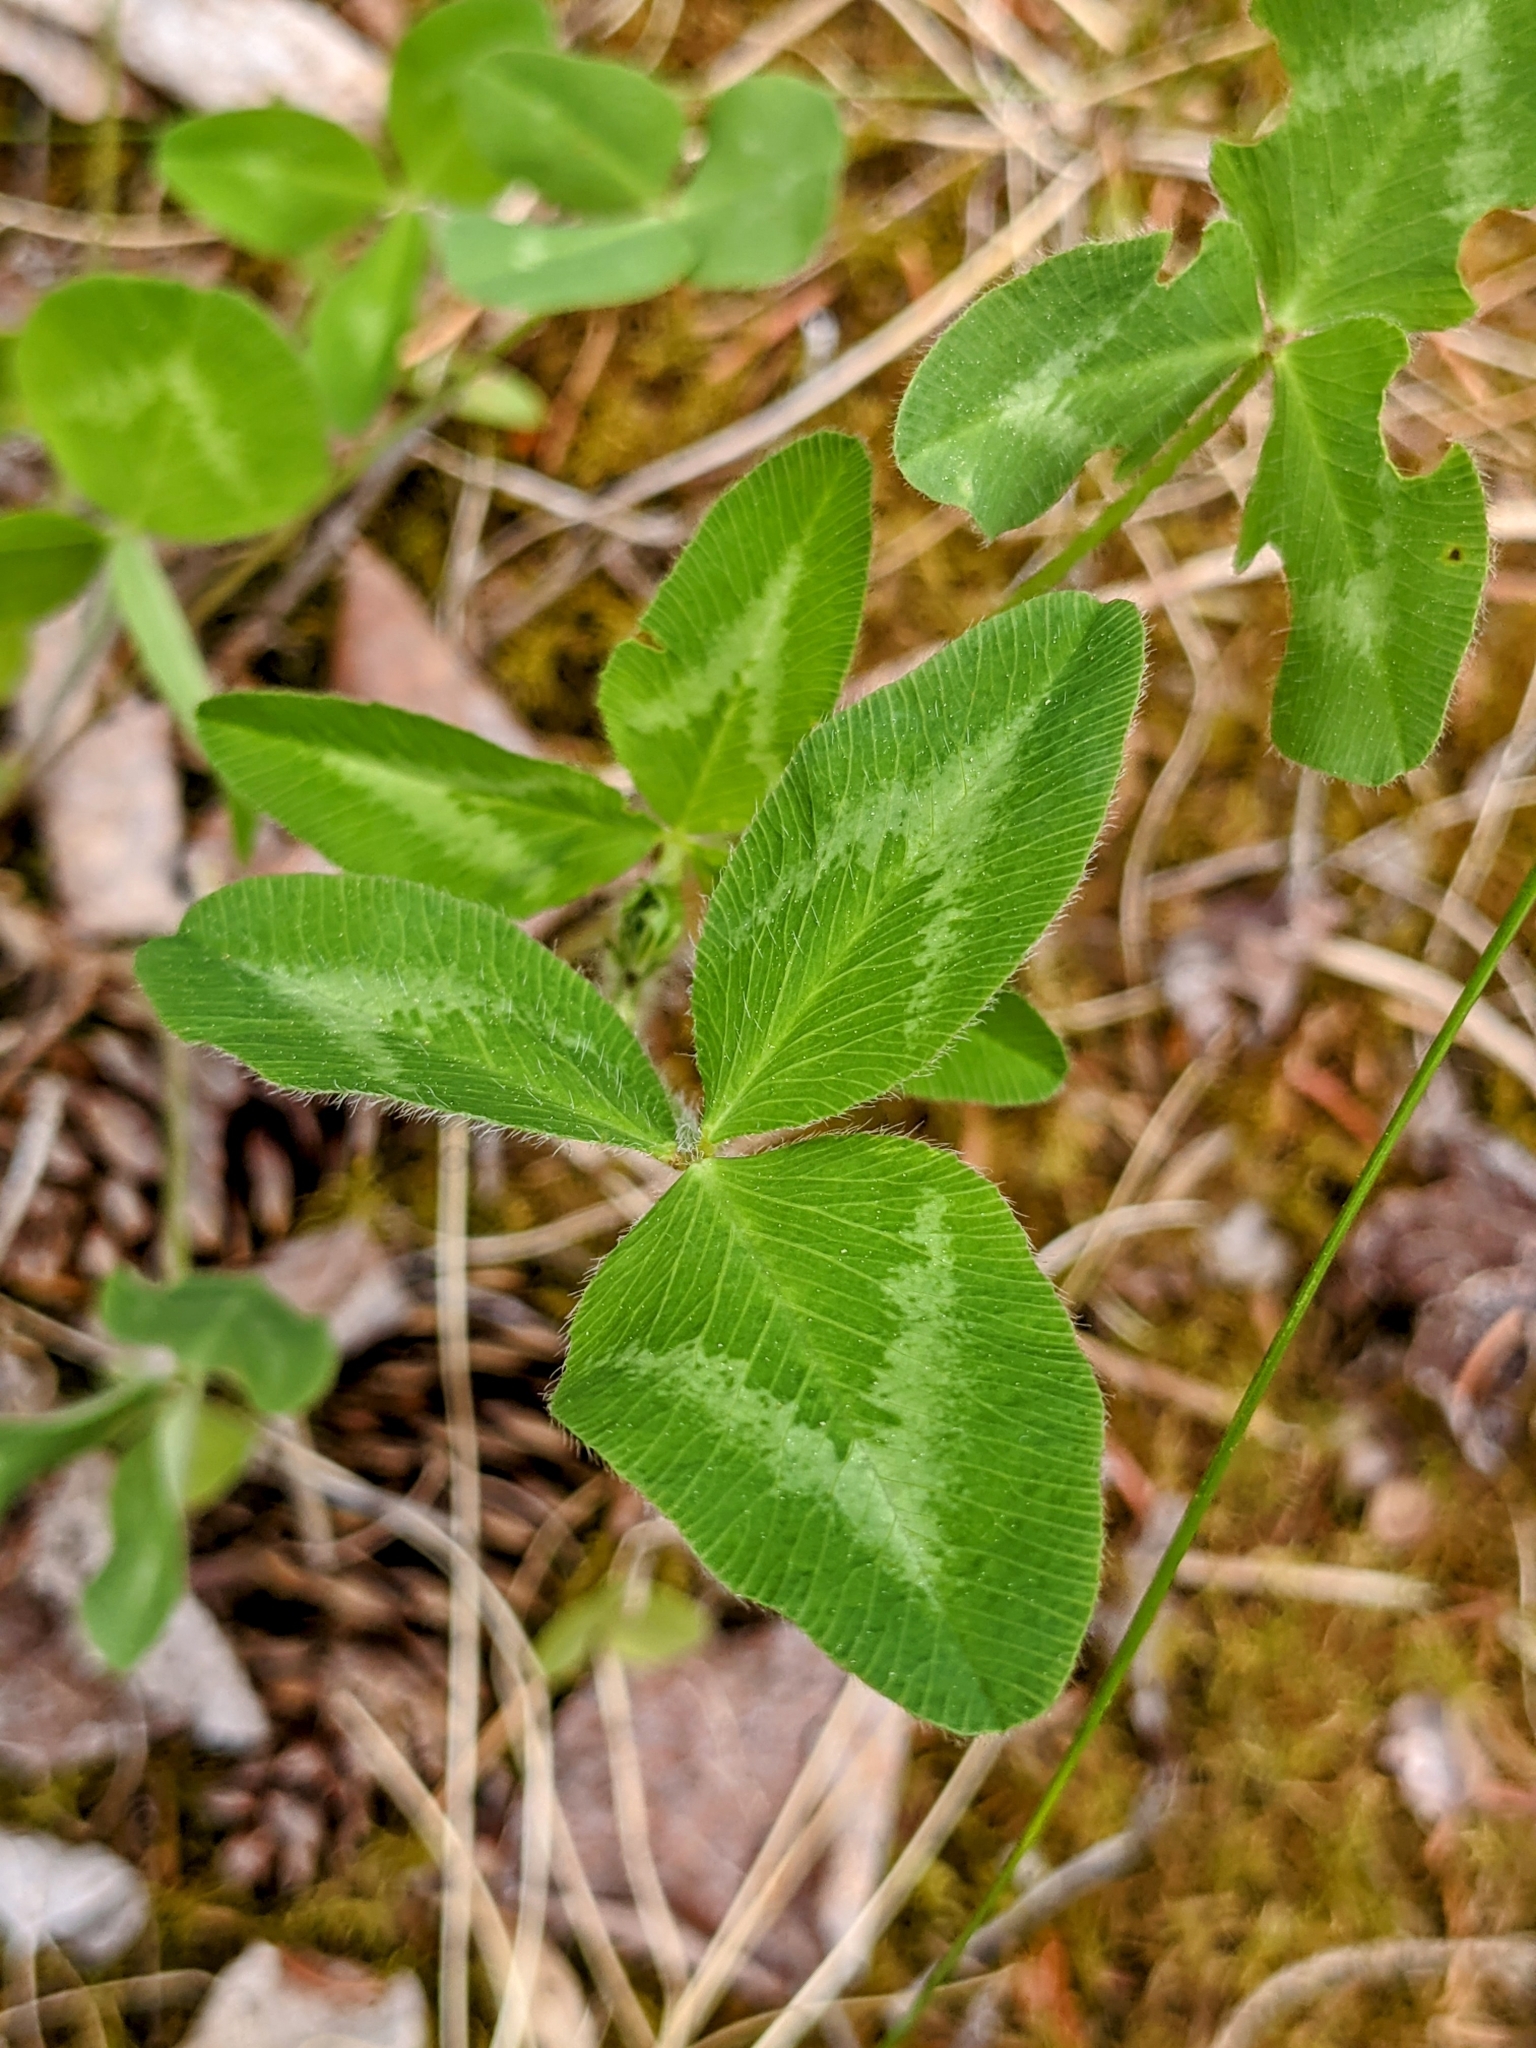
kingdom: Plantae
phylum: Tracheophyta
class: Magnoliopsida
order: Fabales
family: Fabaceae
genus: Trifolium
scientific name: Trifolium pratense
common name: Red clover
